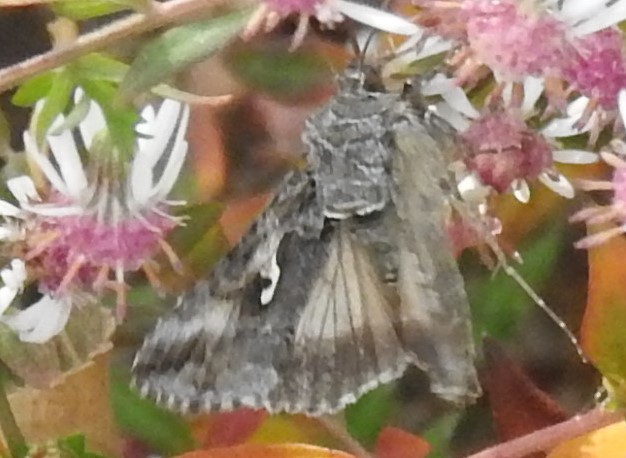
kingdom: Animalia
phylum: Arthropoda
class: Insecta
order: Lepidoptera
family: Noctuidae
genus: Autographa
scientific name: Autographa californica
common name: Alfalfa looper
